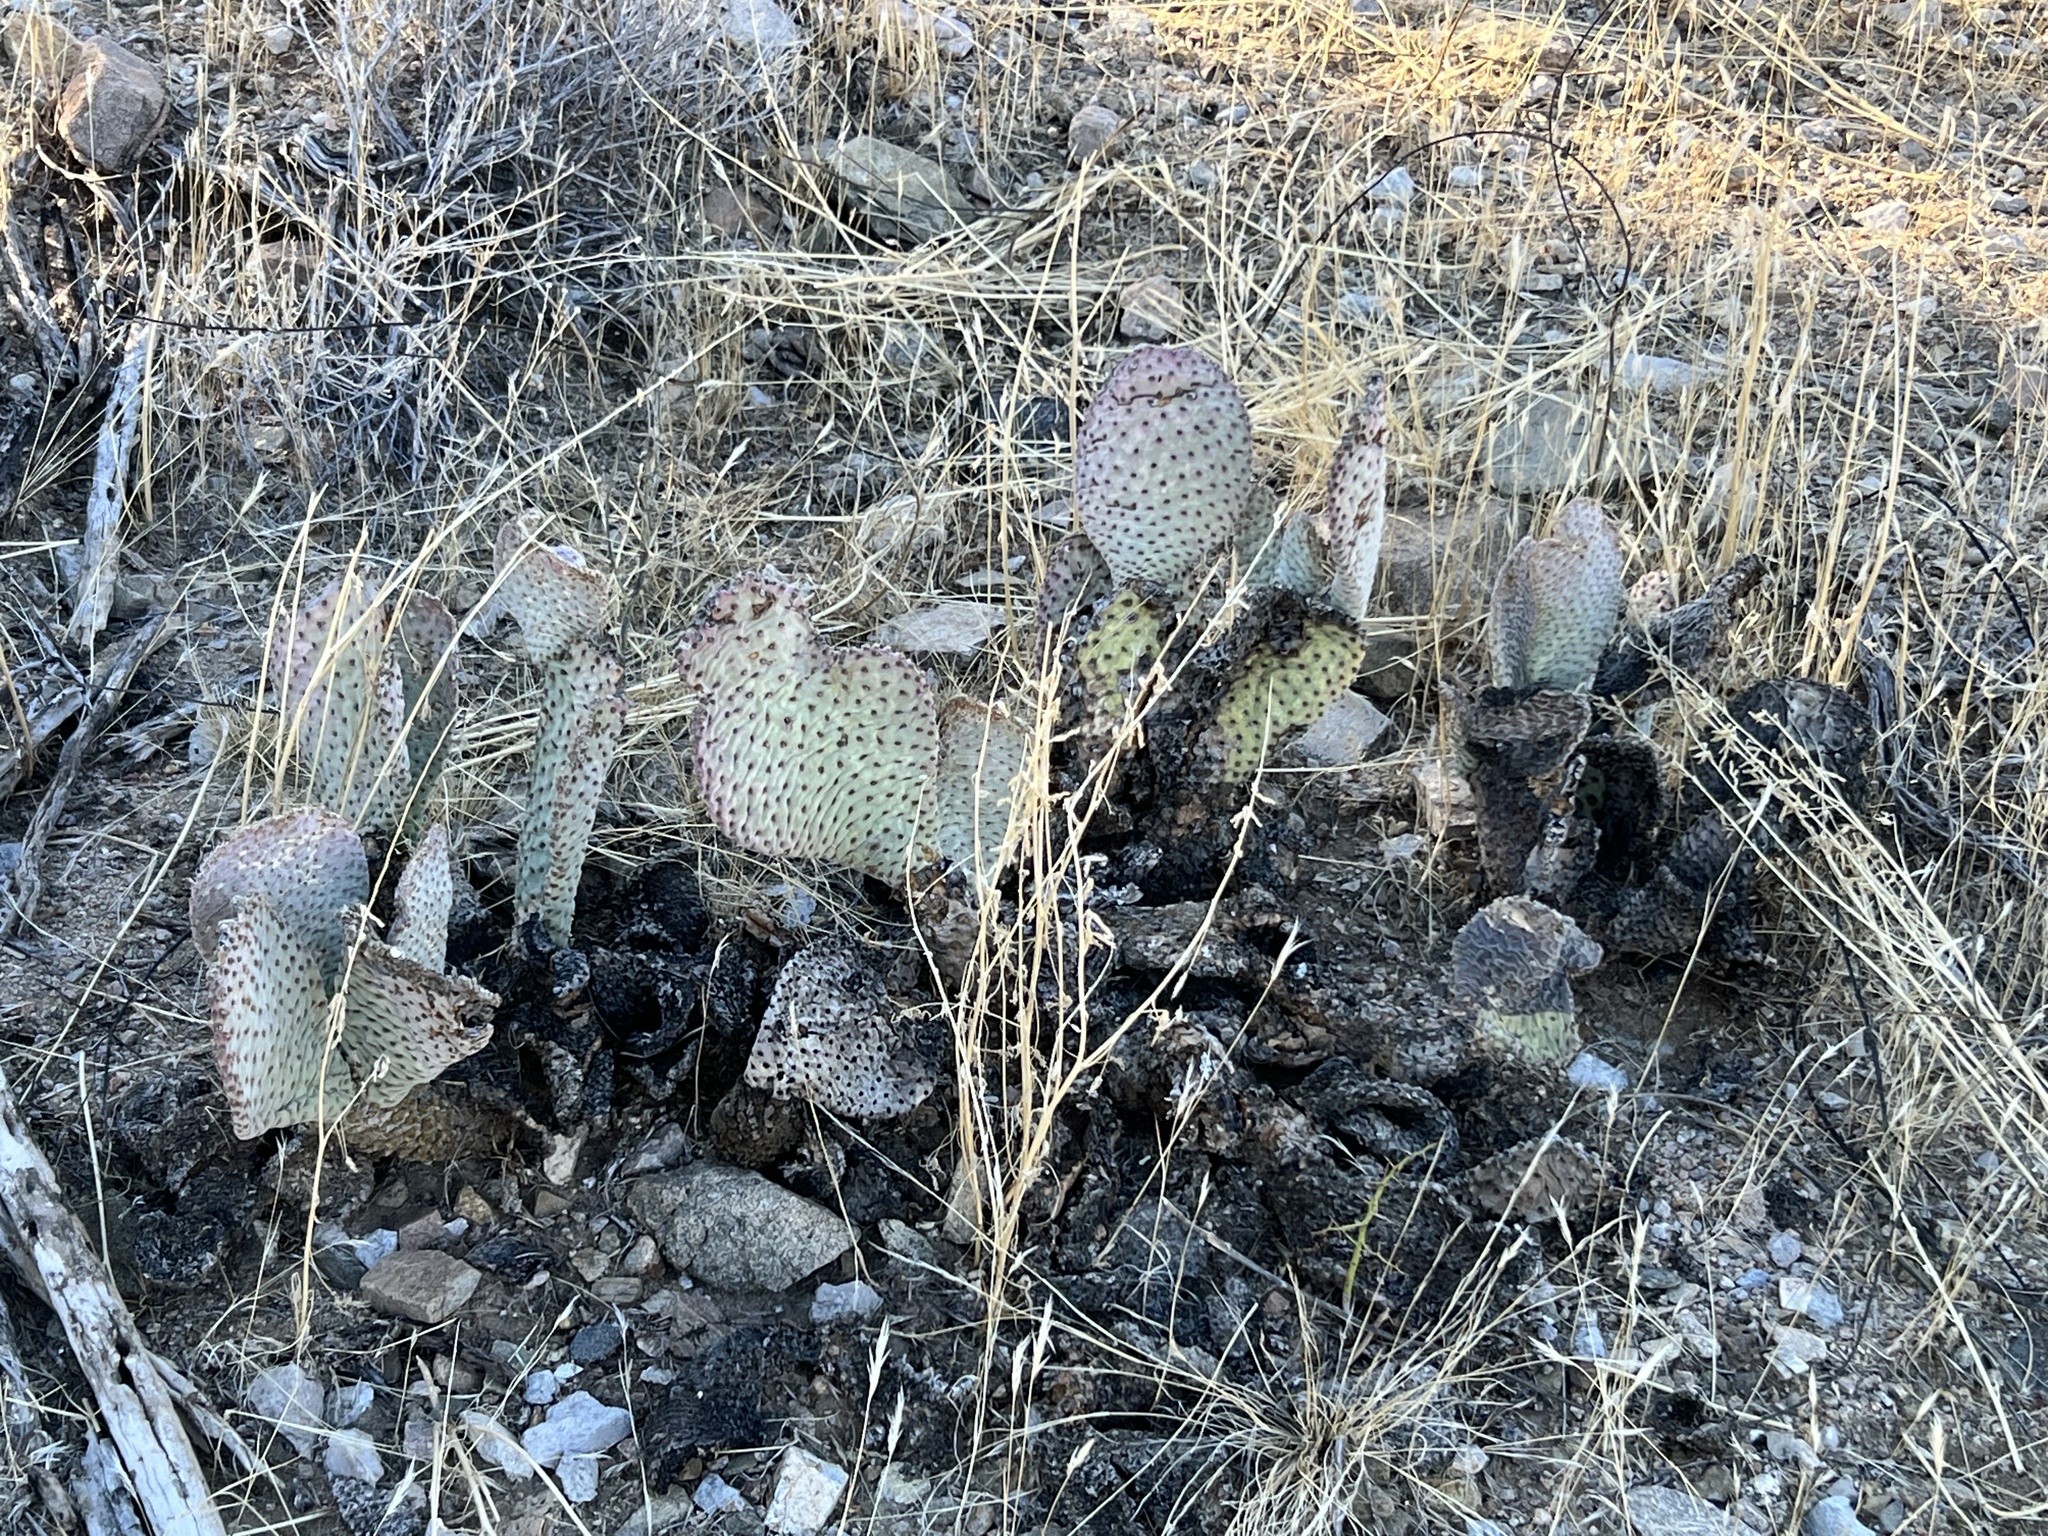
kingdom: Plantae
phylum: Tracheophyta
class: Magnoliopsida
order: Caryophyllales
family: Cactaceae
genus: Opuntia
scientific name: Opuntia basilaris
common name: Beavertail prickly-pear
